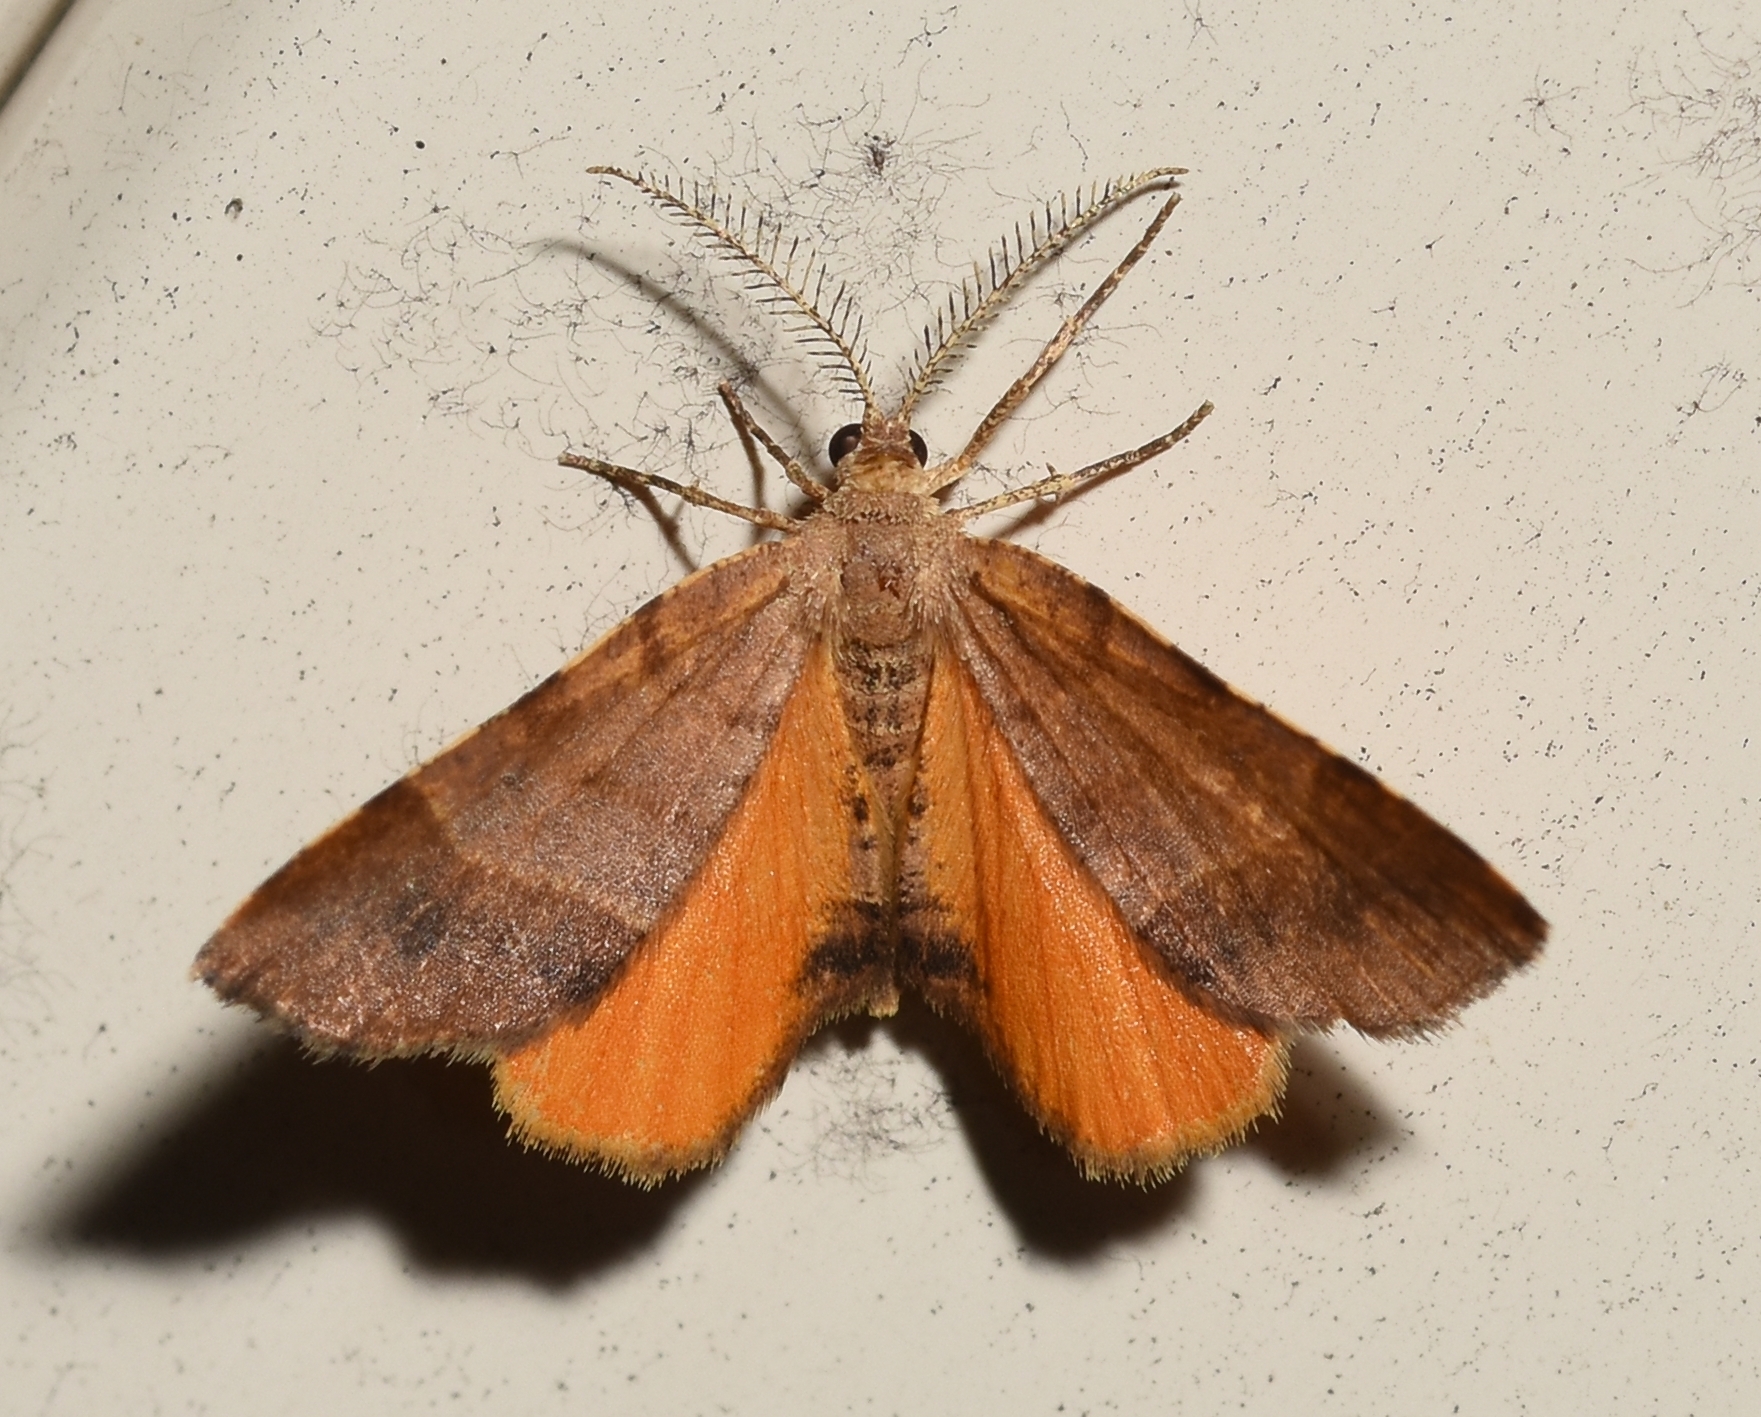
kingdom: Animalia
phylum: Arthropoda
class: Insecta
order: Lepidoptera
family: Geometridae
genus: Mellilla
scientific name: Mellilla xanthometata
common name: Orange wing moth
